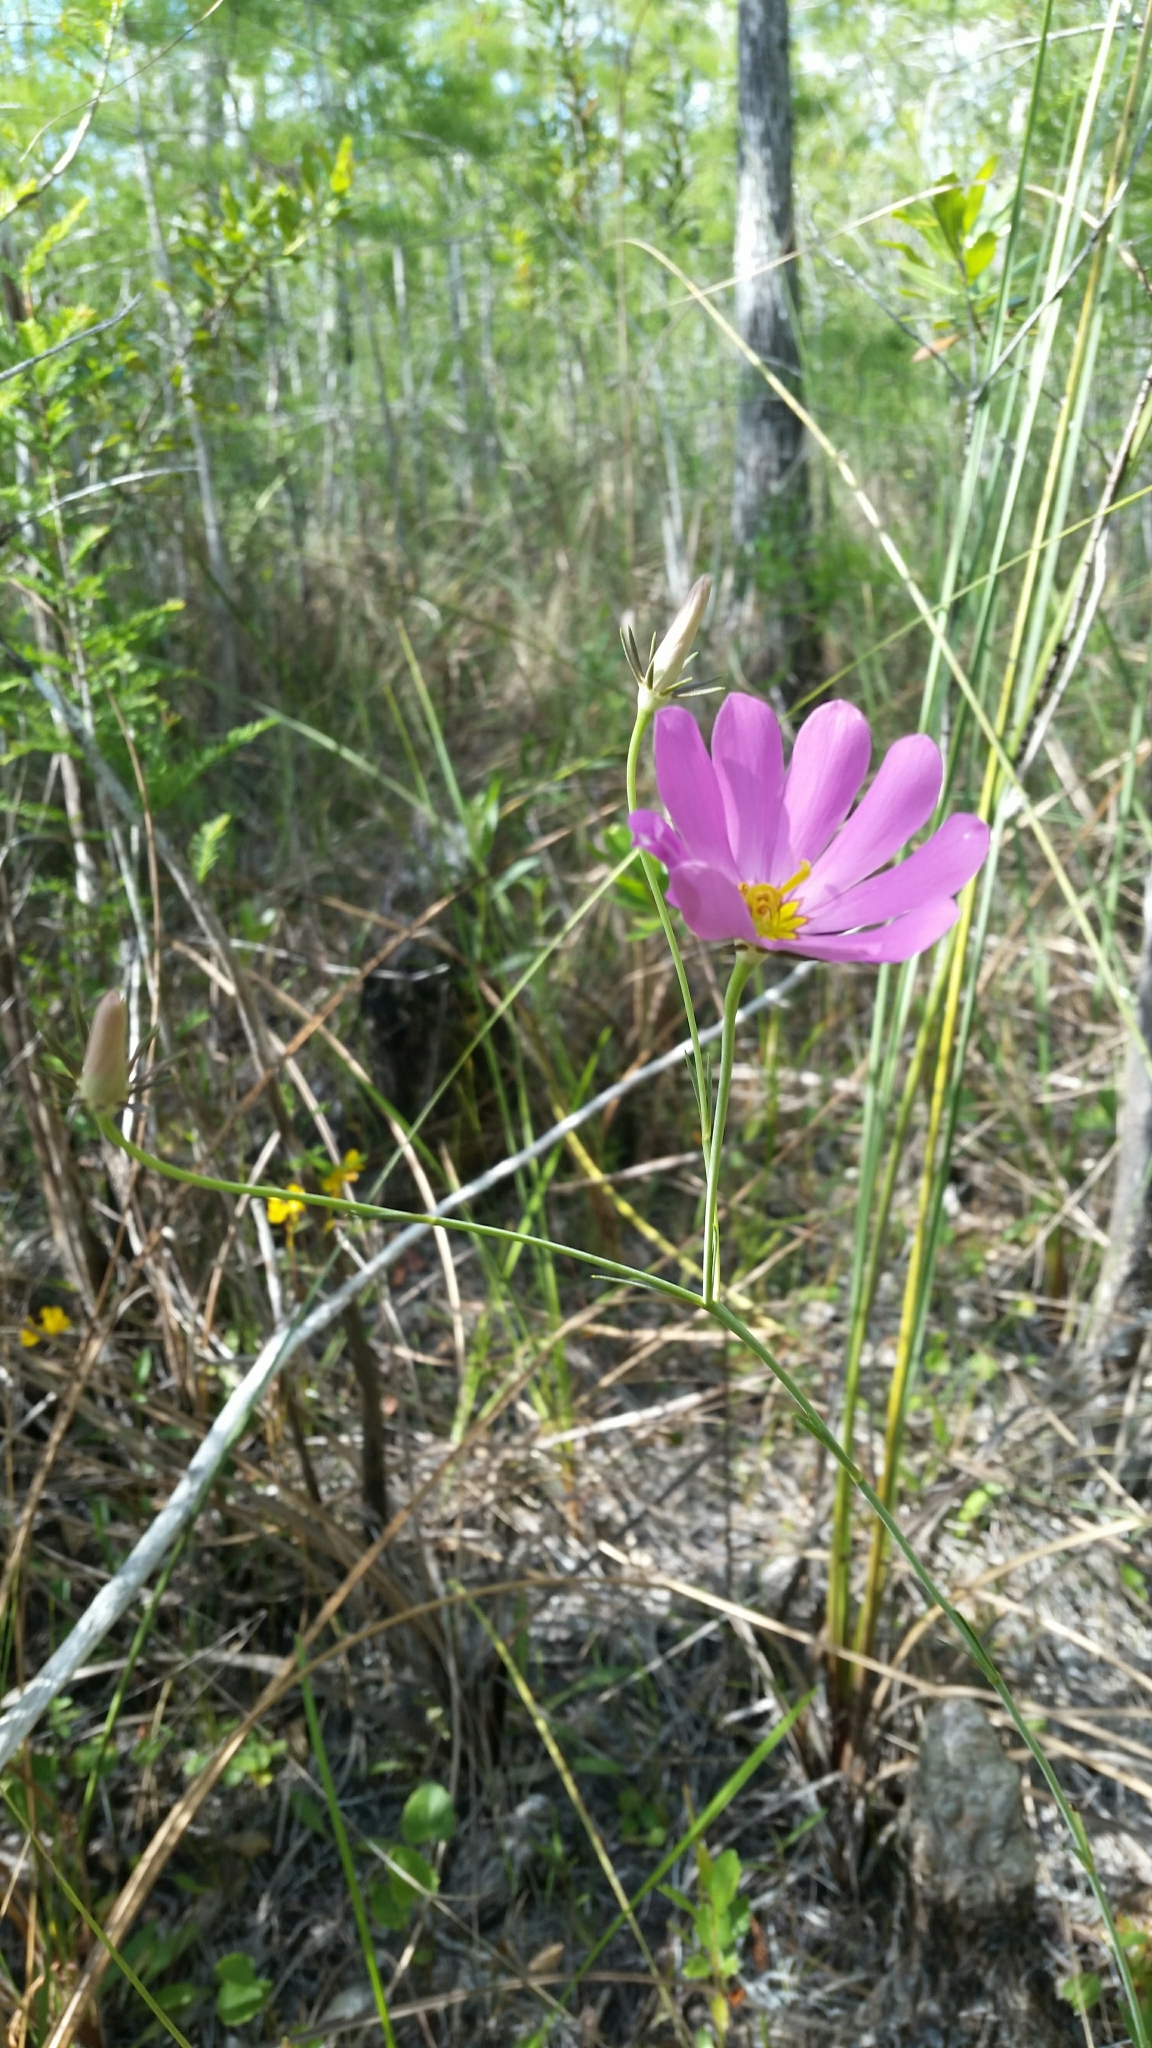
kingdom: Plantae
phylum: Tracheophyta
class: Magnoliopsida
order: Gentianales
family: Gentianaceae
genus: Sabatia
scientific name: Sabatia decandra
